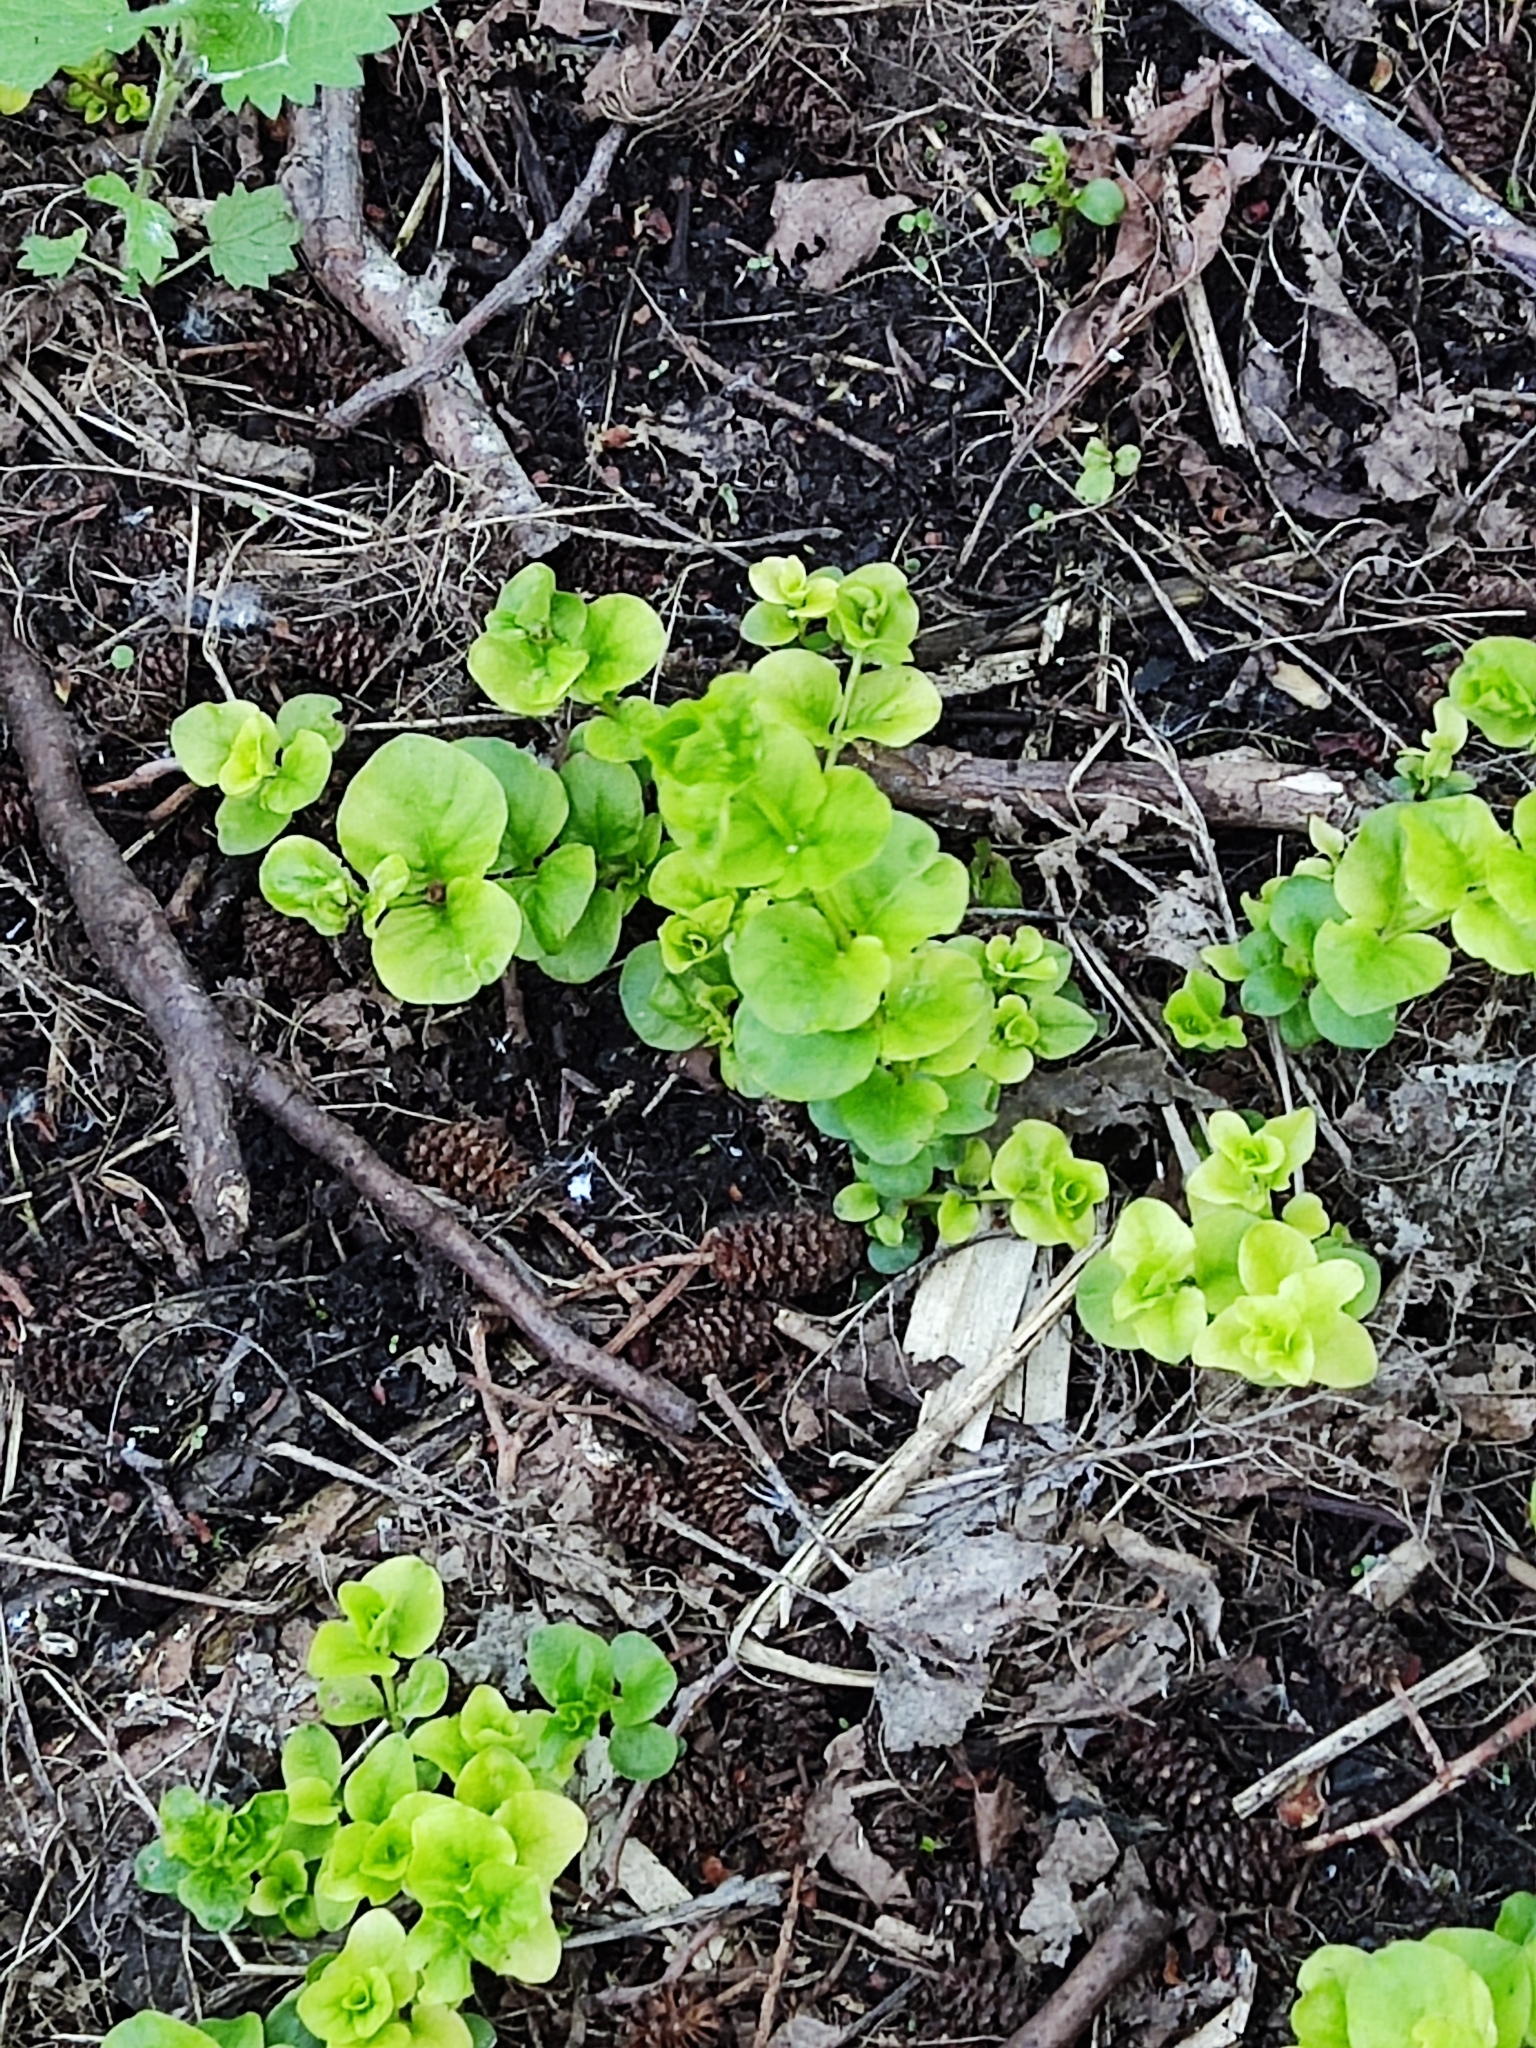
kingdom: Plantae
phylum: Tracheophyta
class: Magnoliopsida
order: Ericales
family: Primulaceae
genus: Lysimachia
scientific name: Lysimachia nummularia
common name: Moneywort
